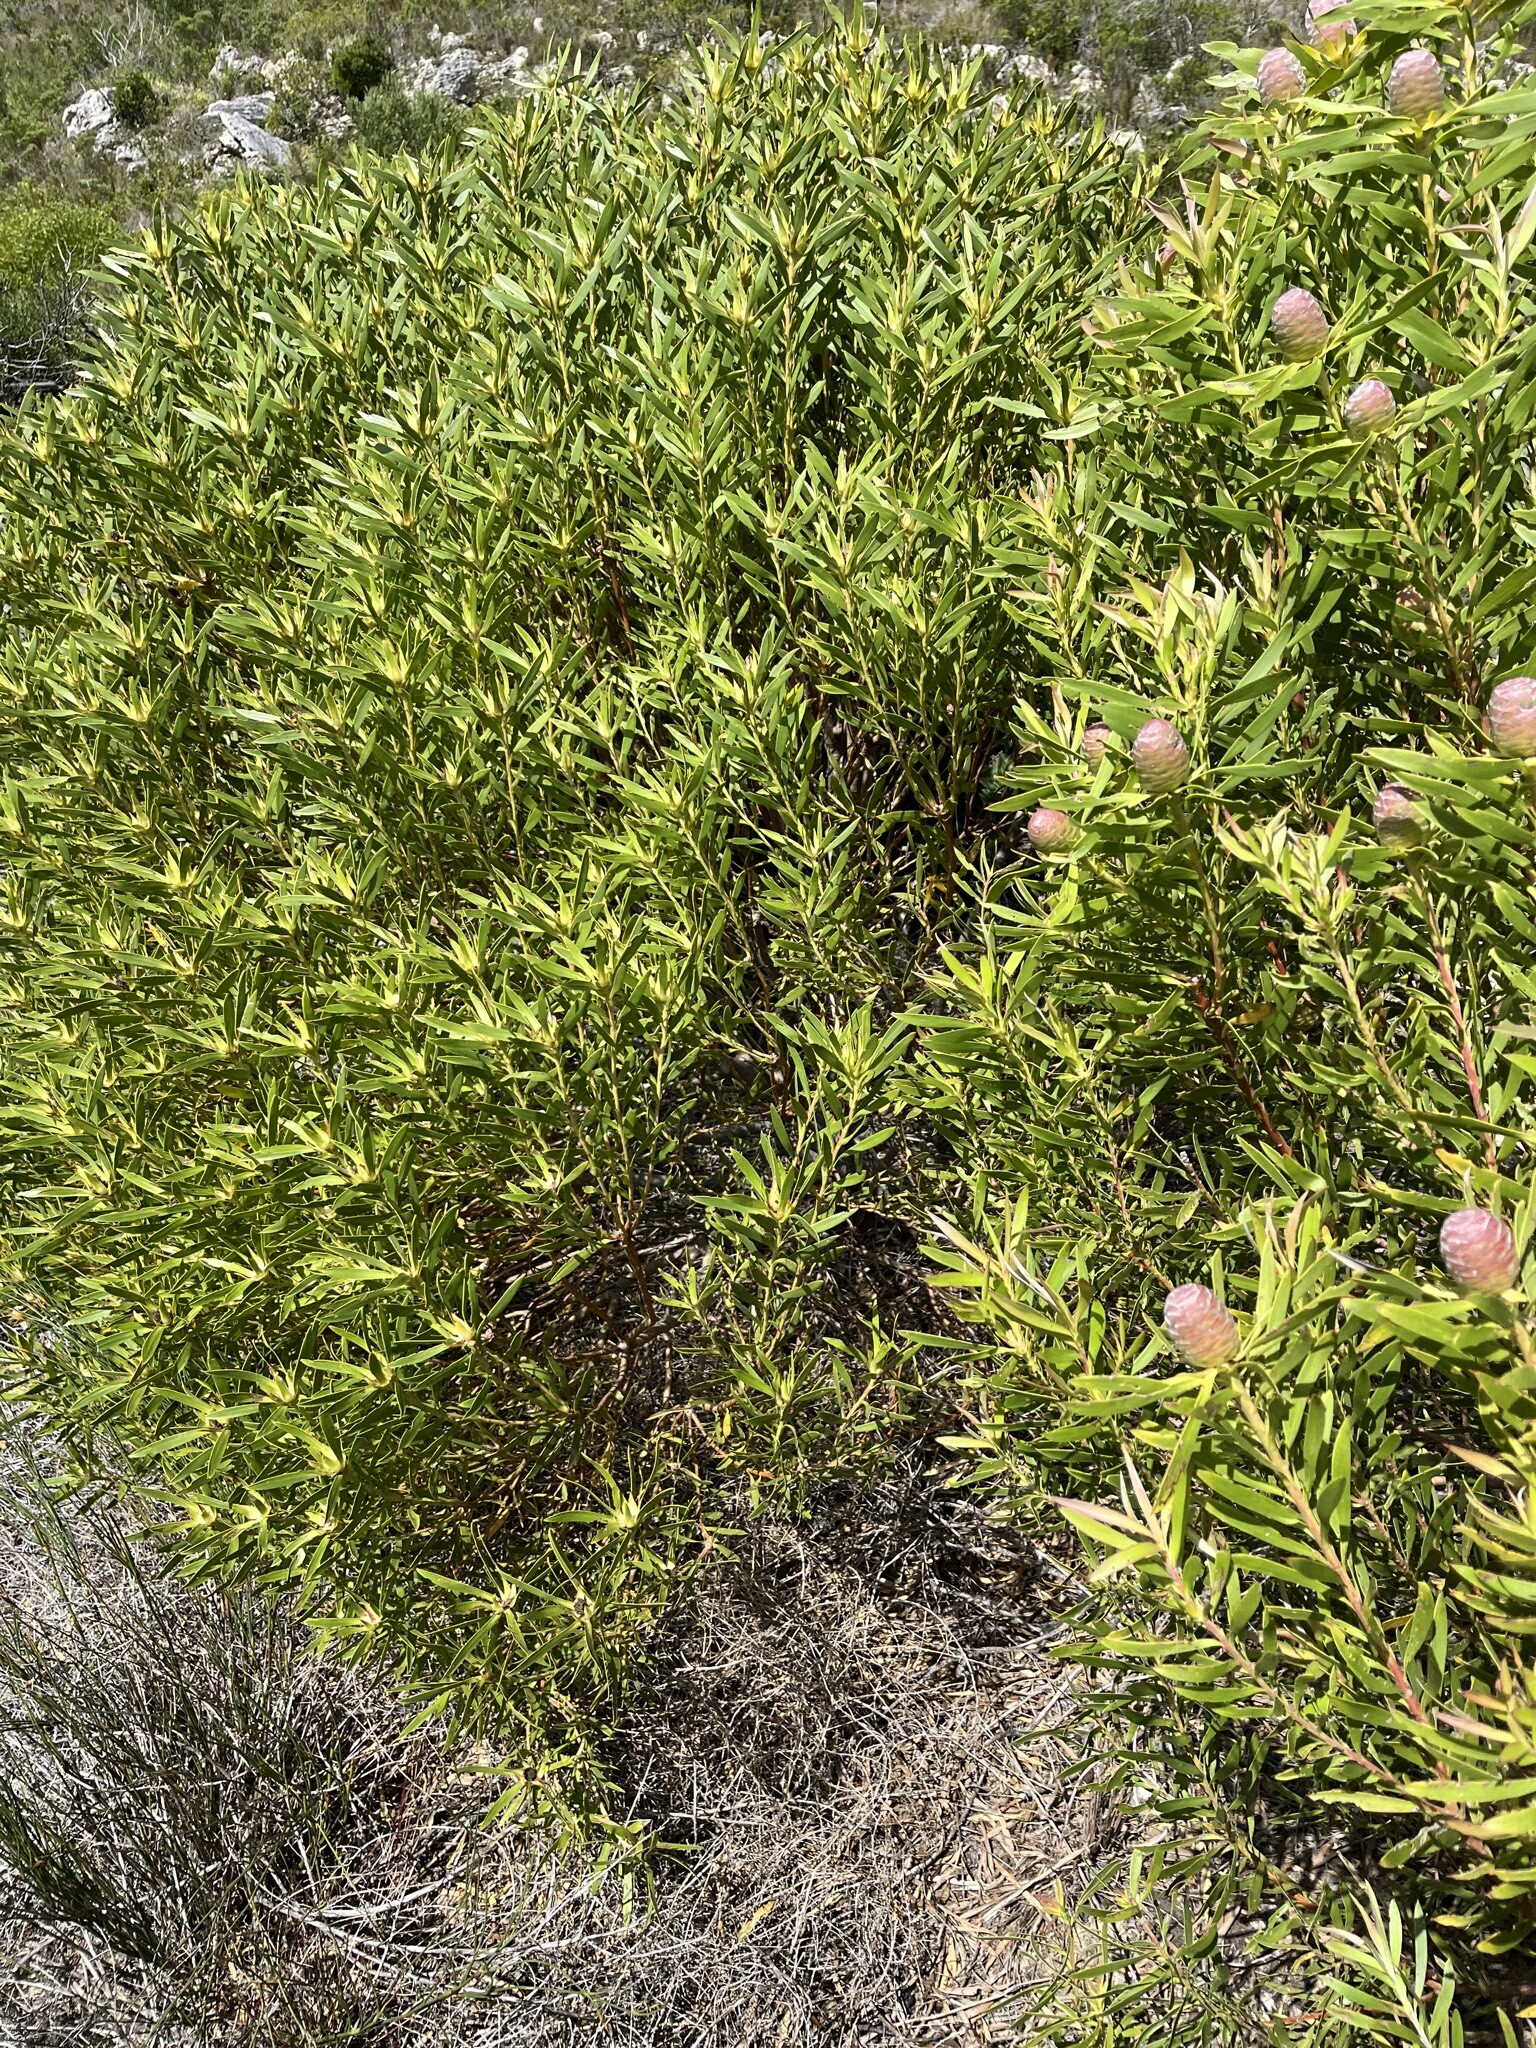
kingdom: Plantae
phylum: Tracheophyta
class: Magnoliopsida
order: Proteales
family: Proteaceae
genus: Leucadendron
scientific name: Leucadendron coniferum
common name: Dune conebush
